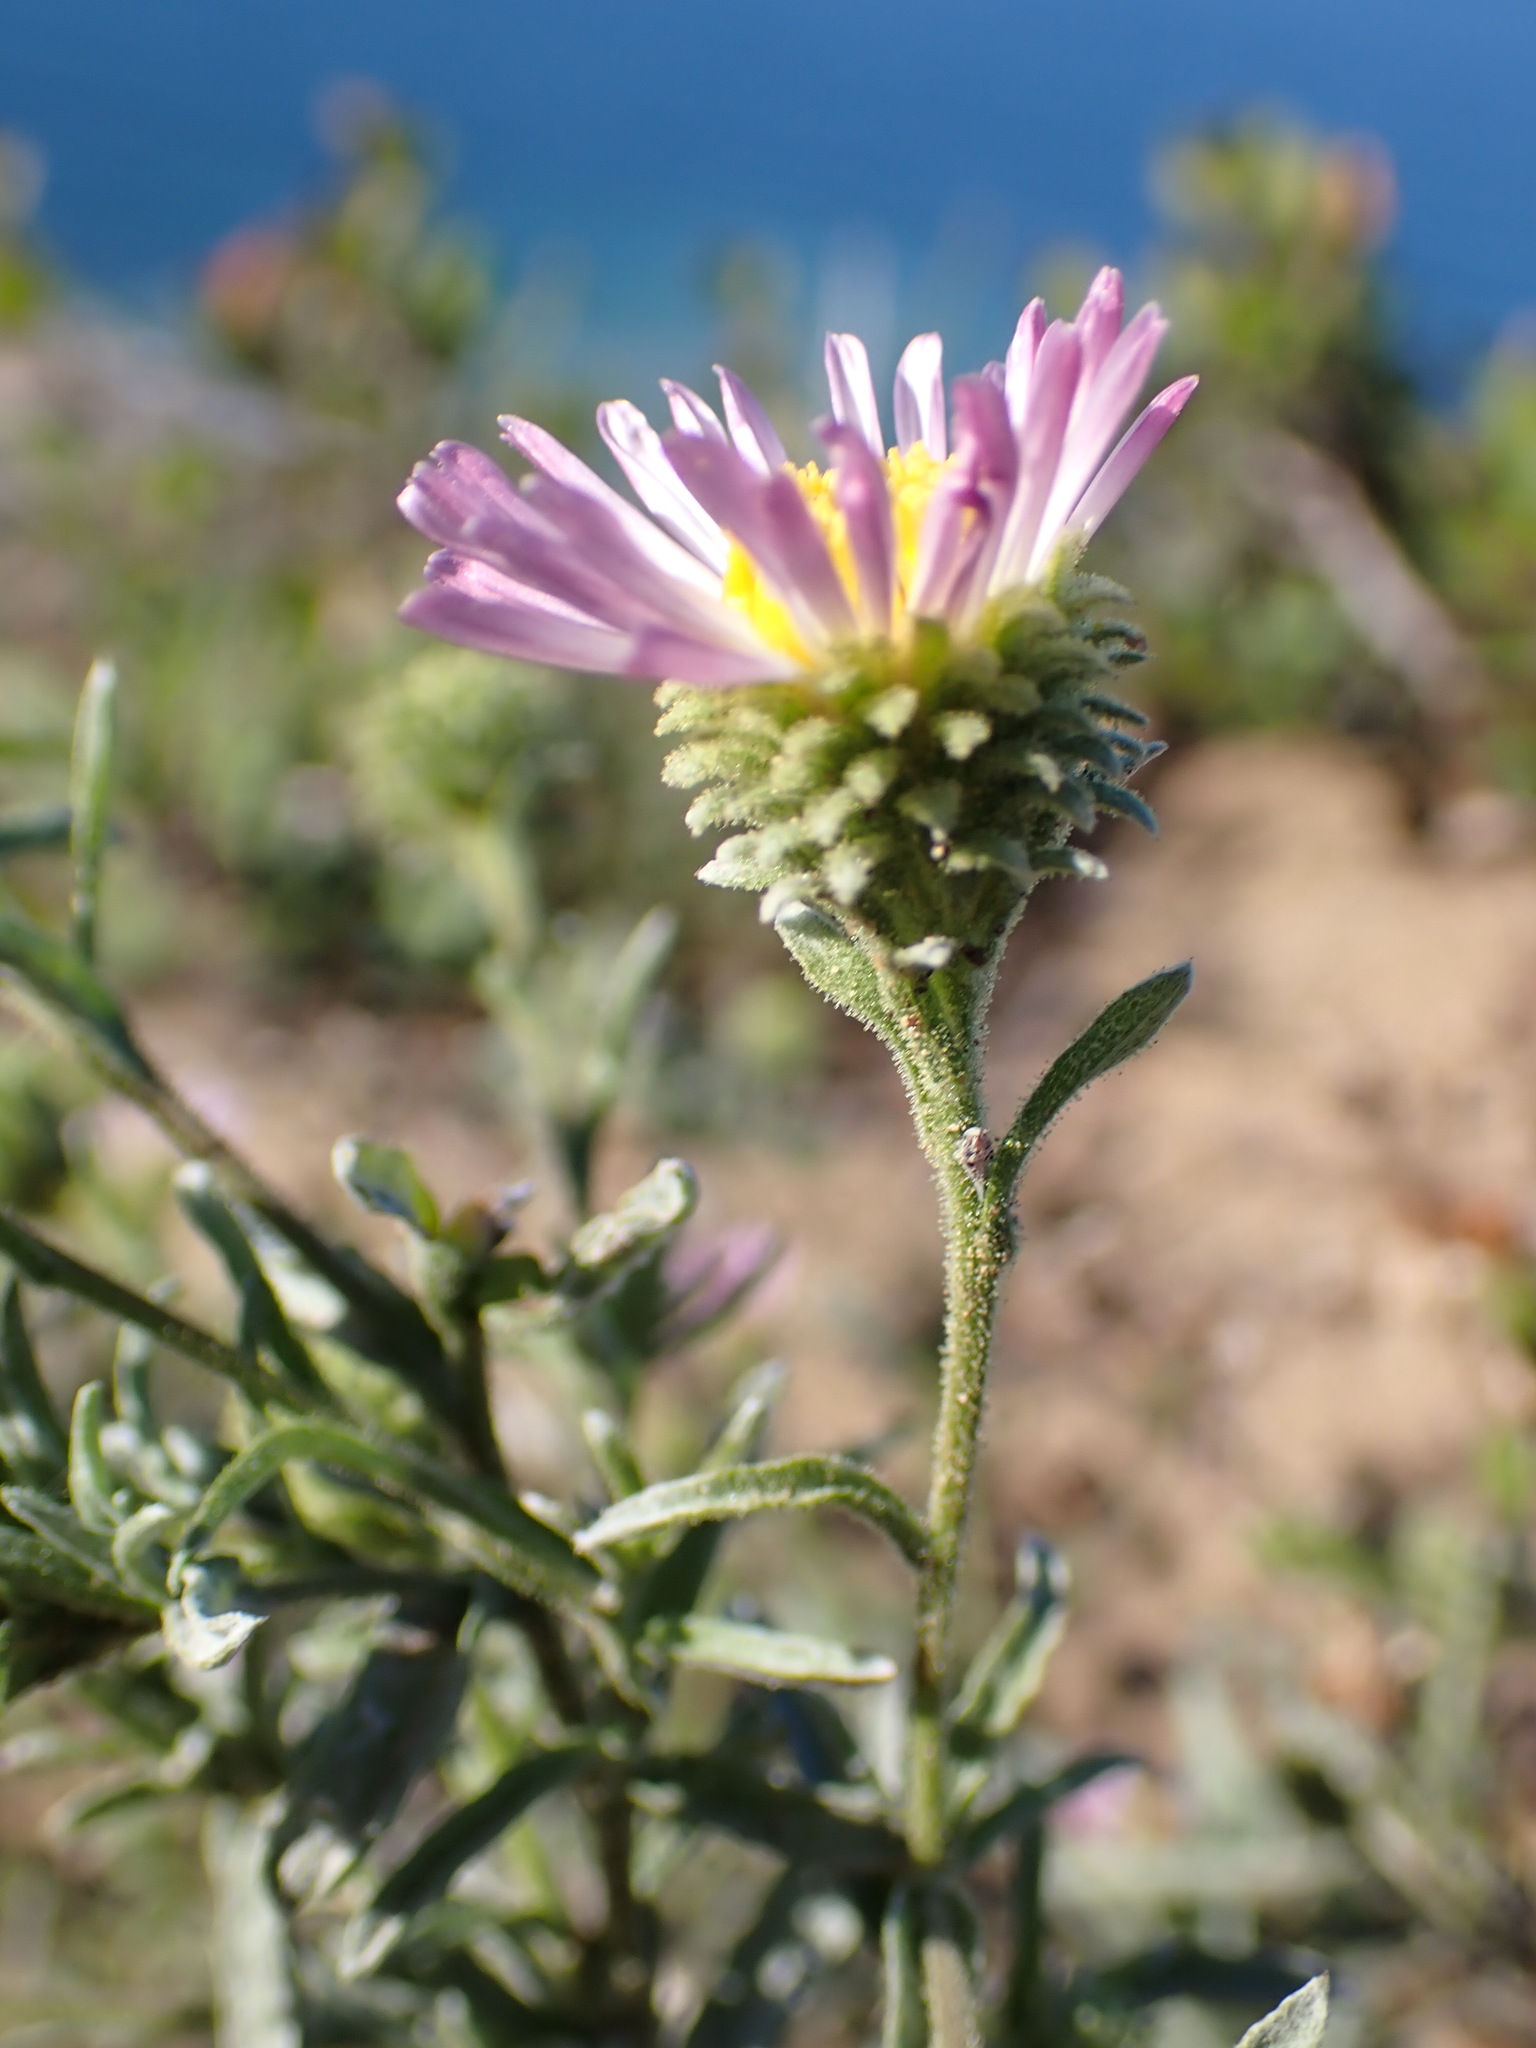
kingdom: Plantae
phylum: Tracheophyta
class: Magnoliopsida
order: Asterales
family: Asteraceae
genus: Corethrogyne
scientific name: Corethrogyne filaginifolia
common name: Sand-aster
